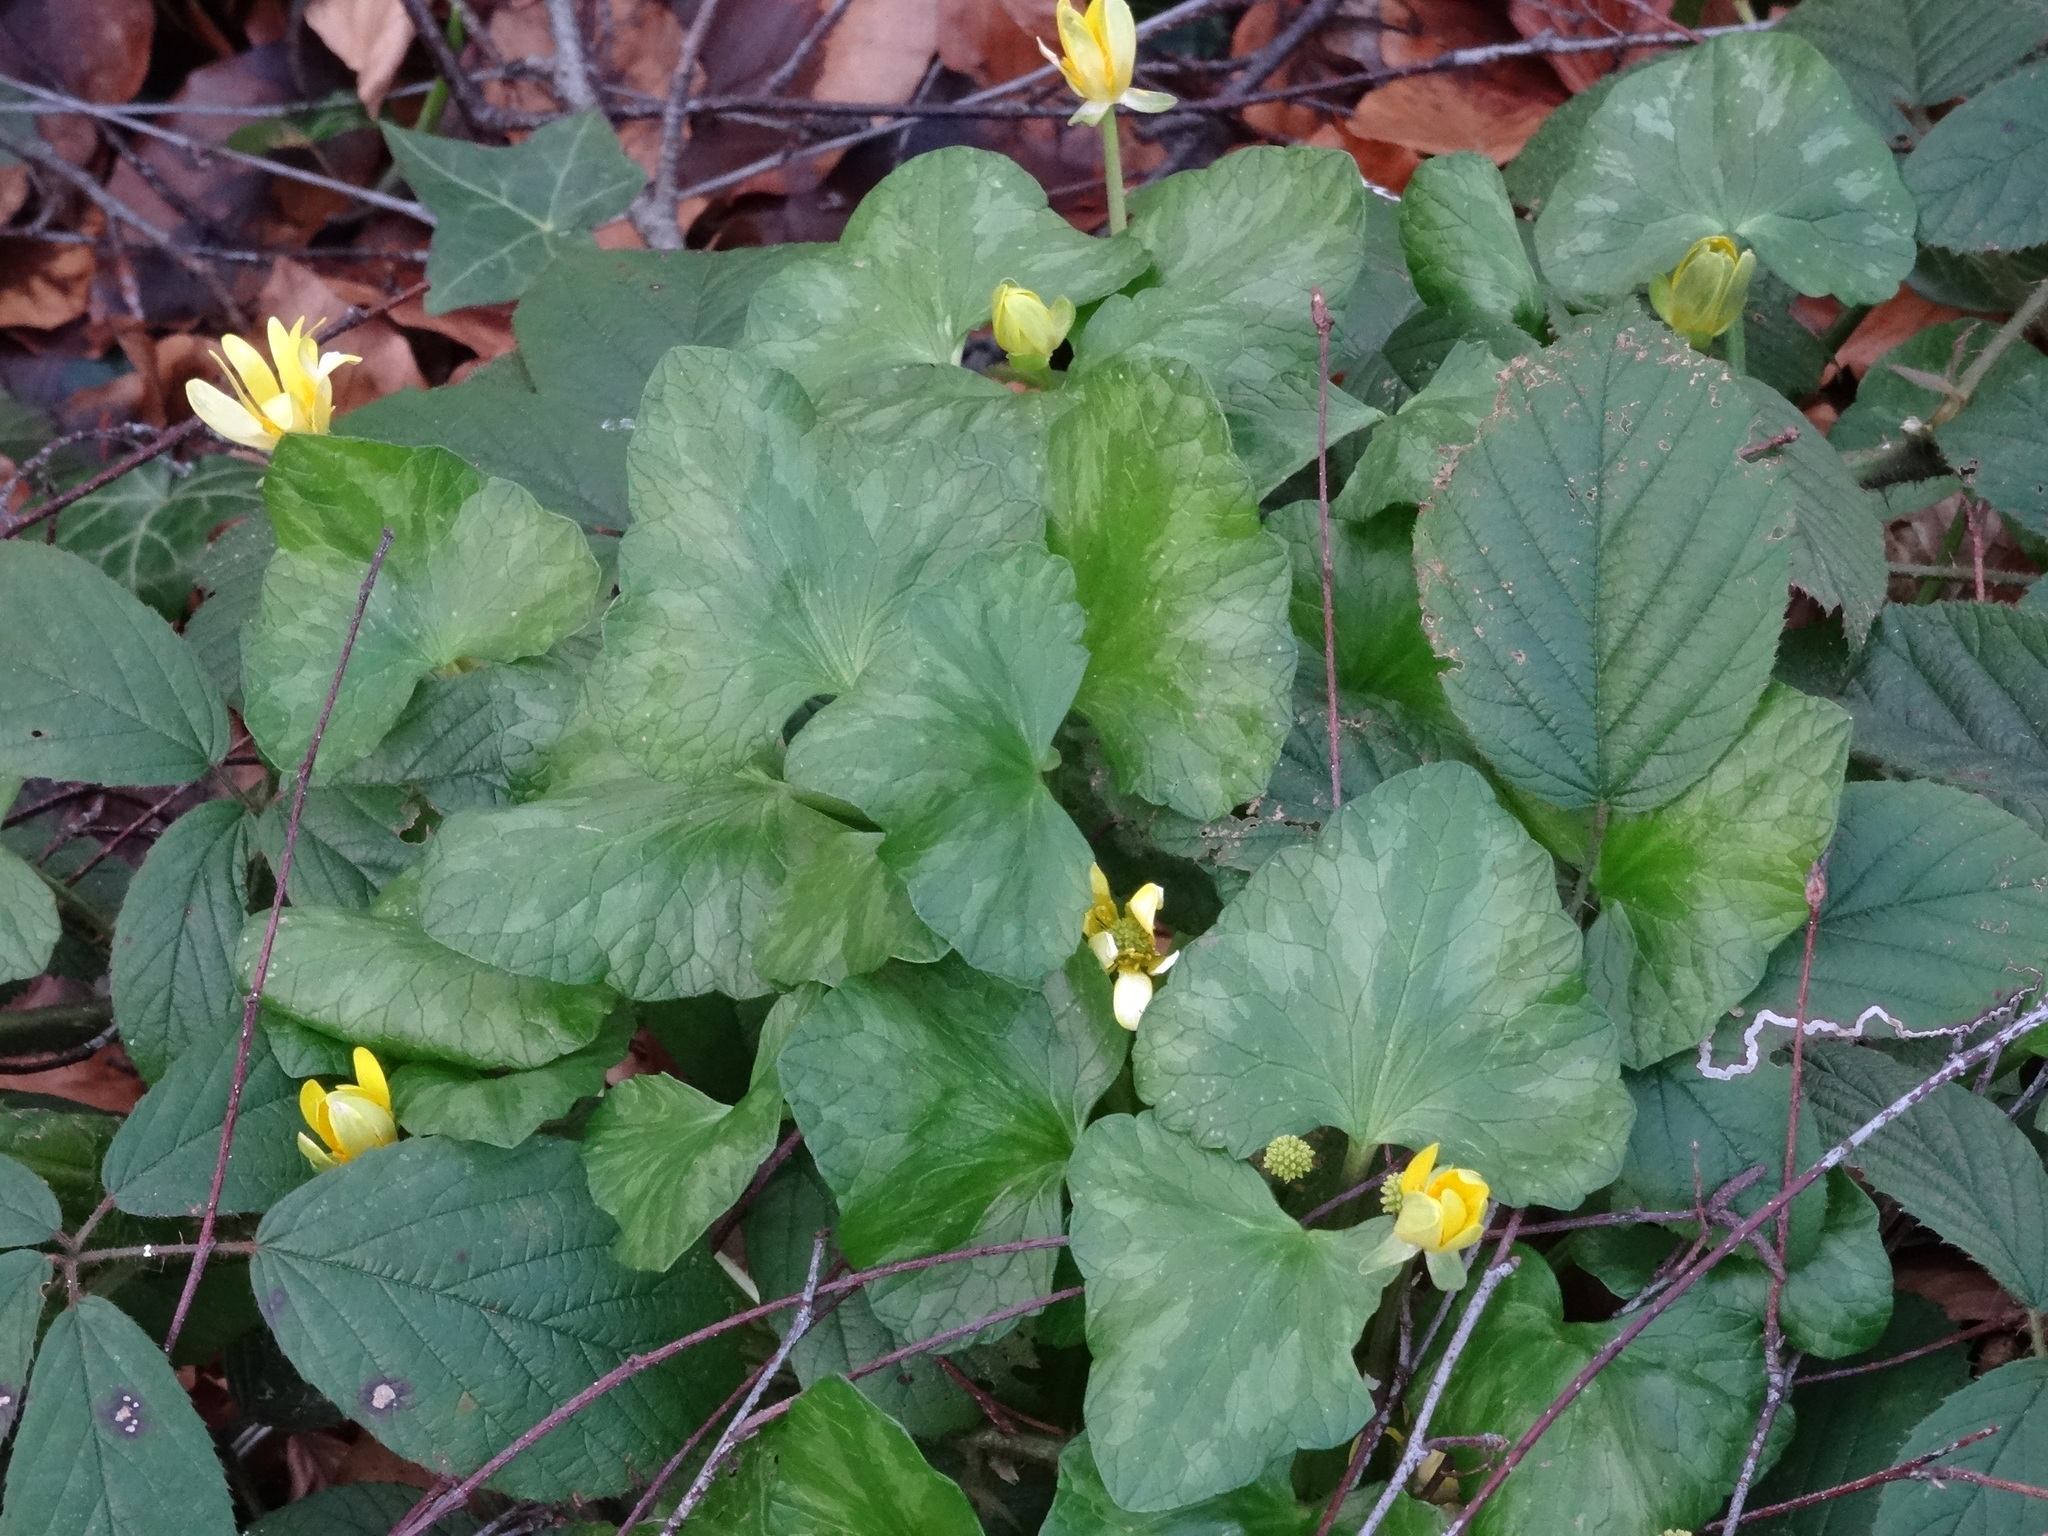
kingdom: Plantae
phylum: Tracheophyta
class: Magnoliopsida
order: Ranunculales
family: Ranunculaceae
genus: Ficaria
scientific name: Ficaria verna
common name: Lesser celandine
